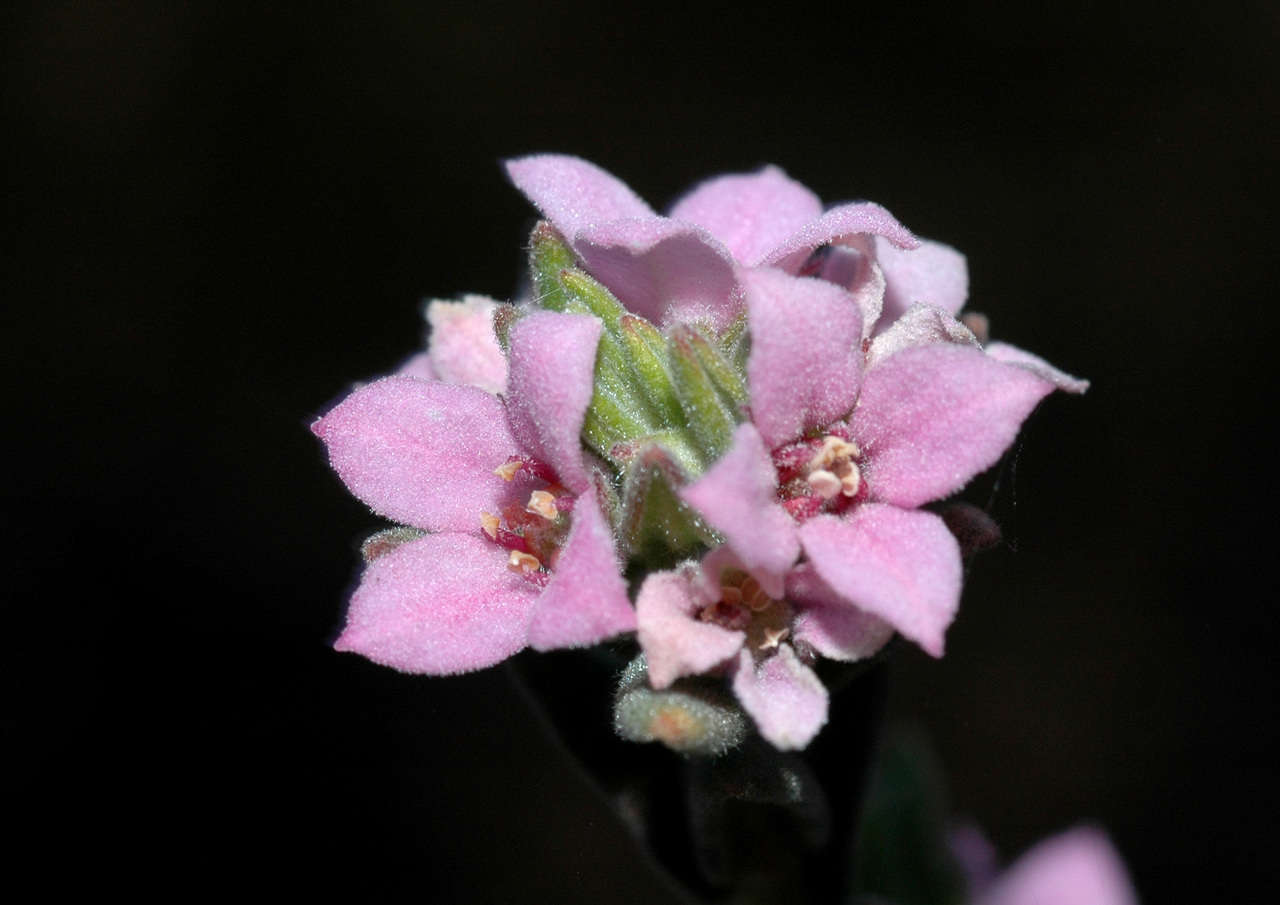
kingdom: Plantae
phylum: Tracheophyta
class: Magnoliopsida
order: Sapindales
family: Rutaceae
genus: Zieria
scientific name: Zieria veronicea
